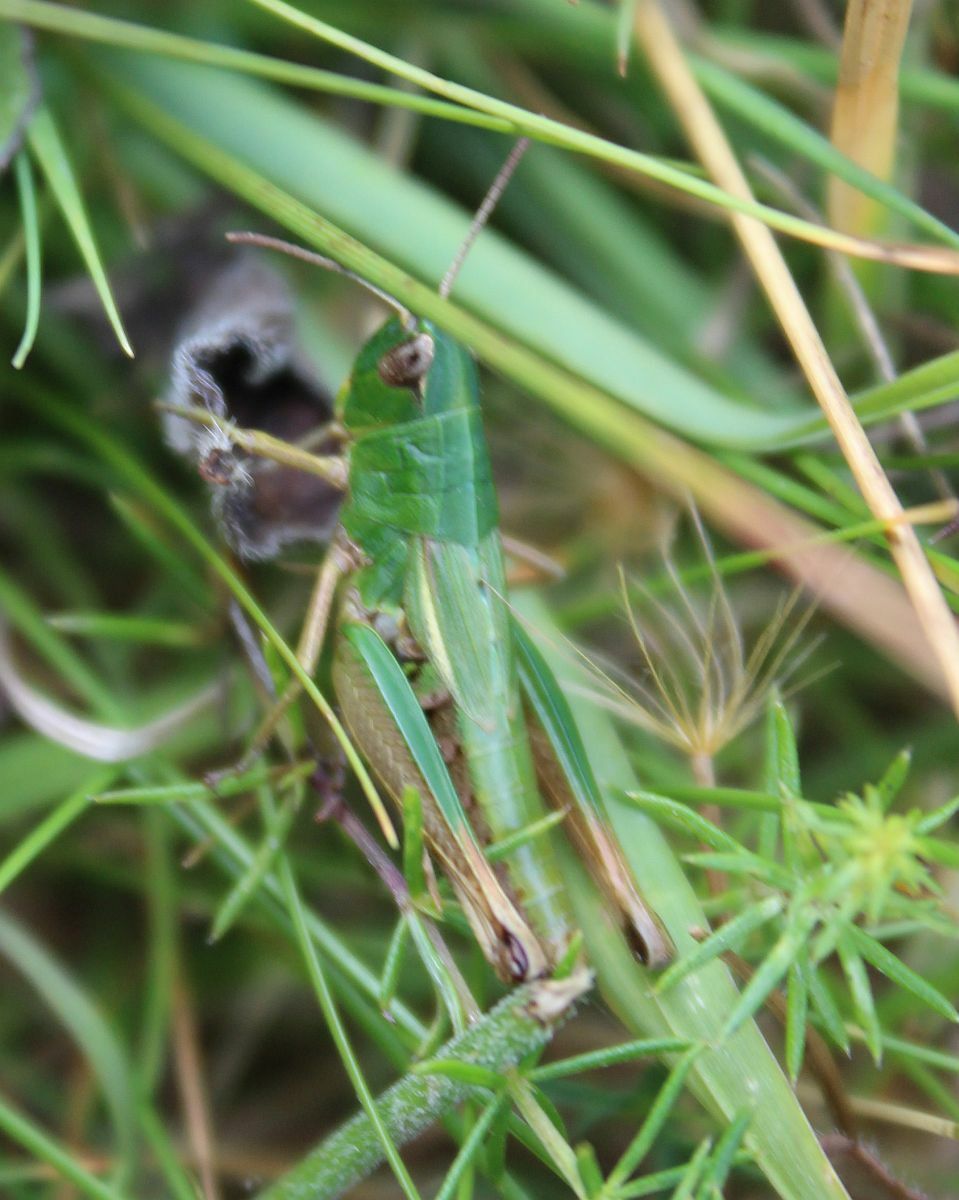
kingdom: Animalia
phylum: Arthropoda
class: Insecta
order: Orthoptera
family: Acrididae
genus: Pseudochorthippus
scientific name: Pseudochorthippus parallelus
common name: Meadow grasshopper
